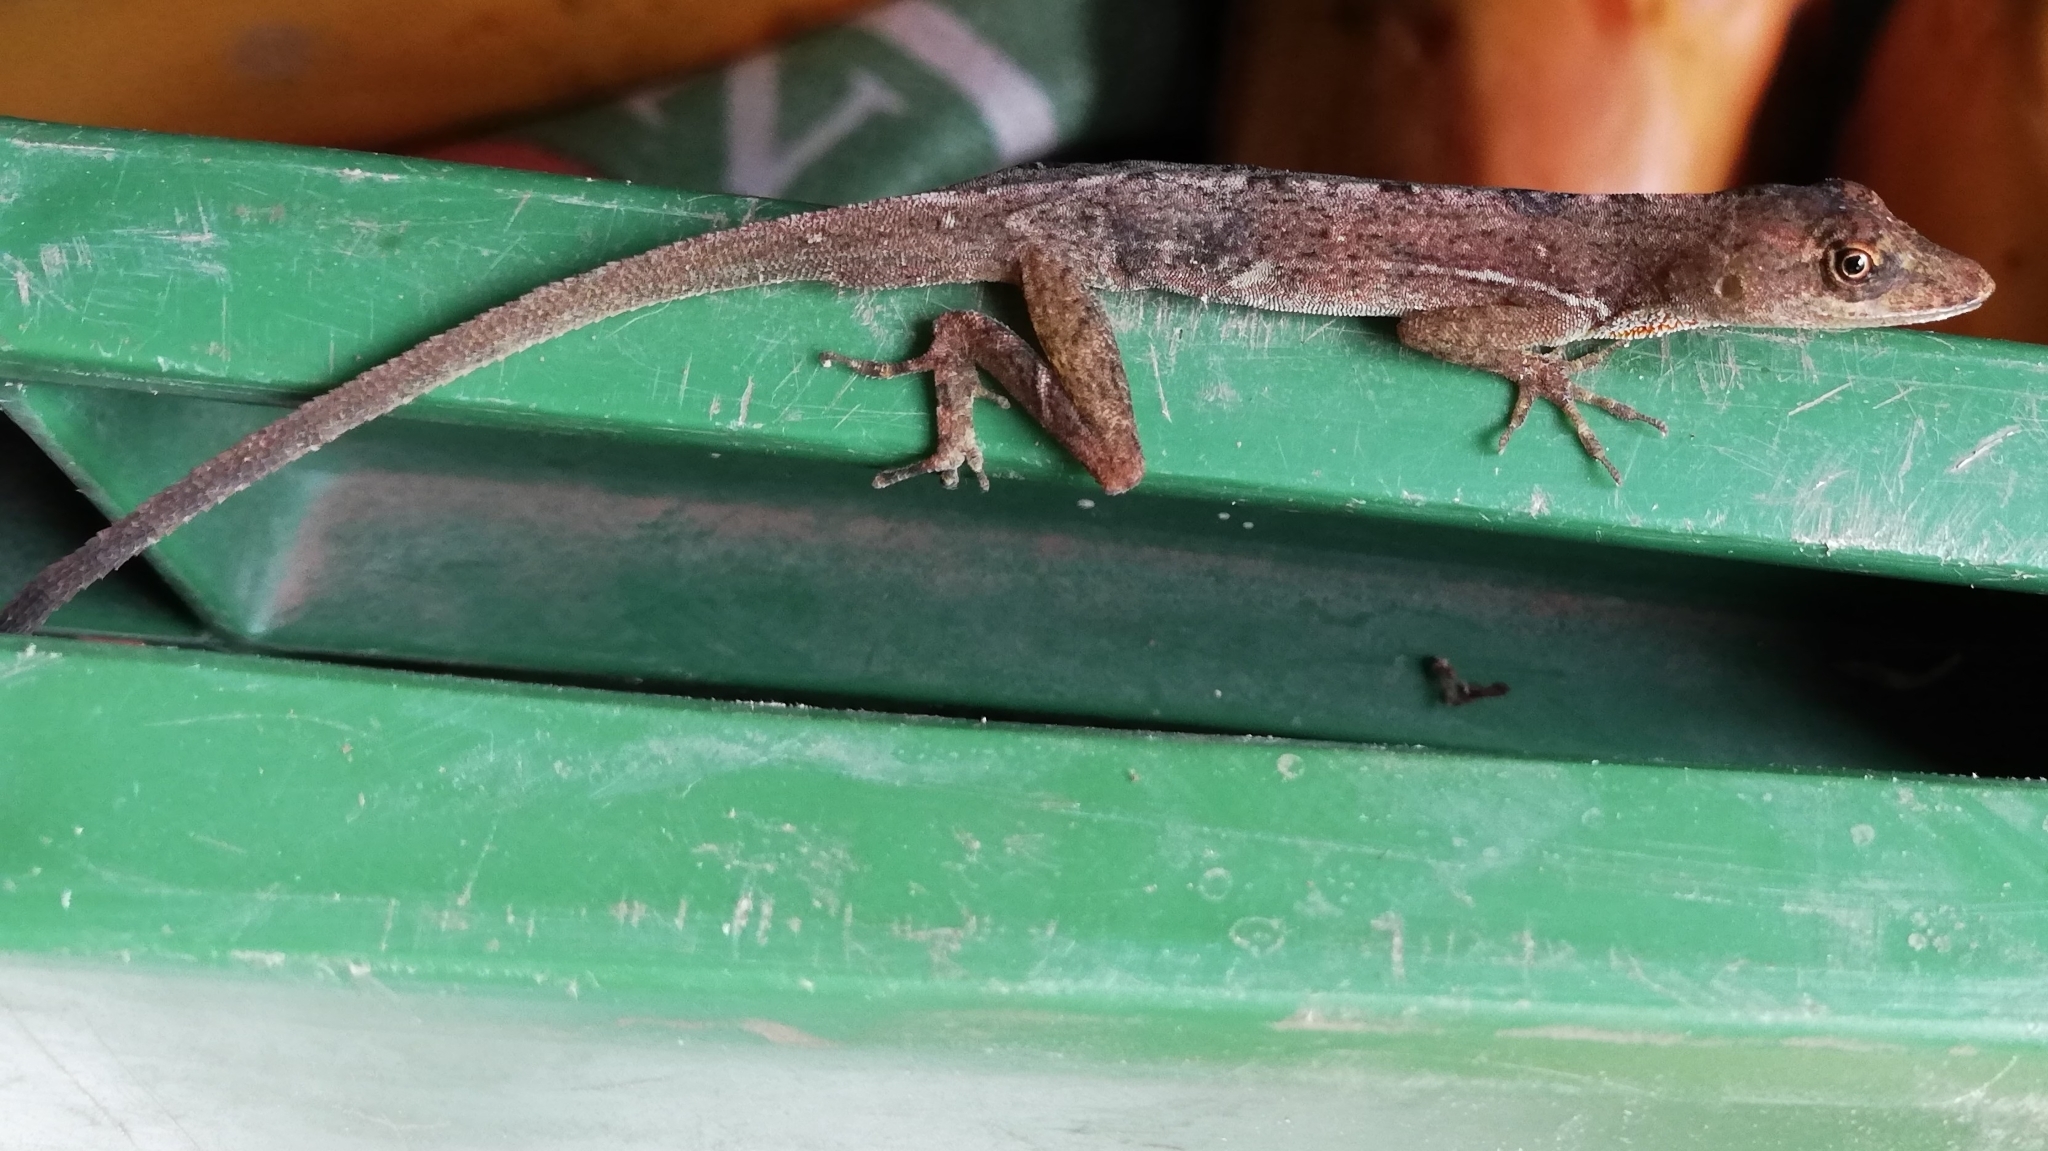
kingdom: Animalia
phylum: Chordata
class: Squamata
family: Dactyloidae
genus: Anolis
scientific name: Anolis polylepis
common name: Many-scaled anole
